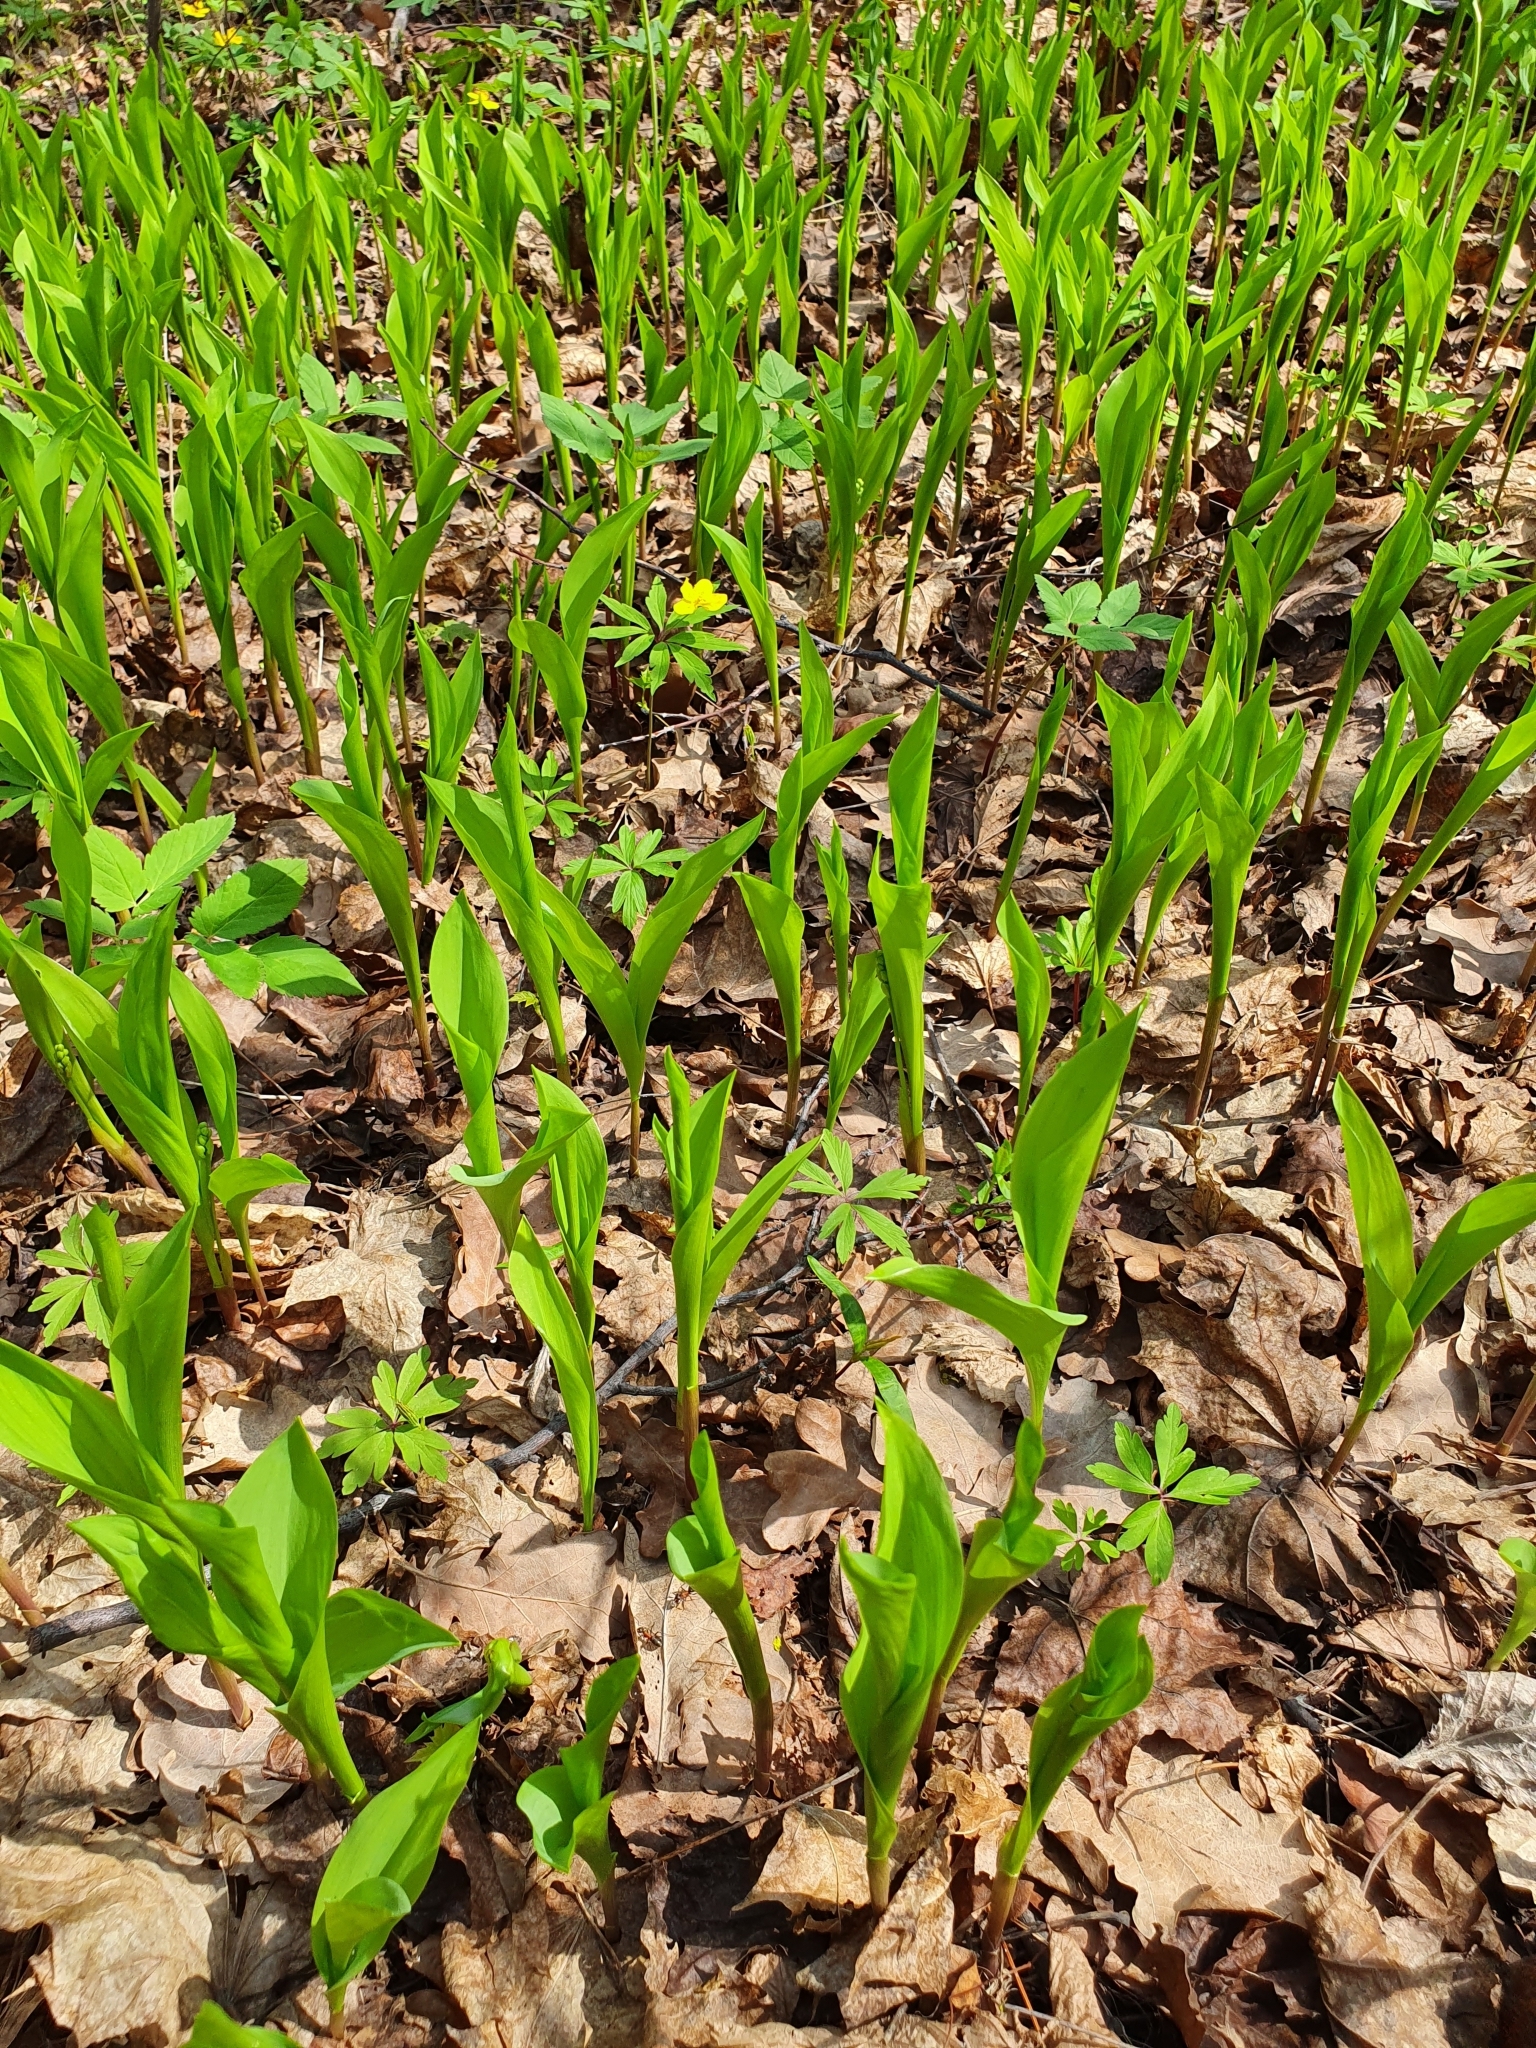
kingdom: Plantae
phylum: Tracheophyta
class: Liliopsida
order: Asparagales
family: Asparagaceae
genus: Convallaria
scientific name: Convallaria majalis
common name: Lily-of-the-valley
